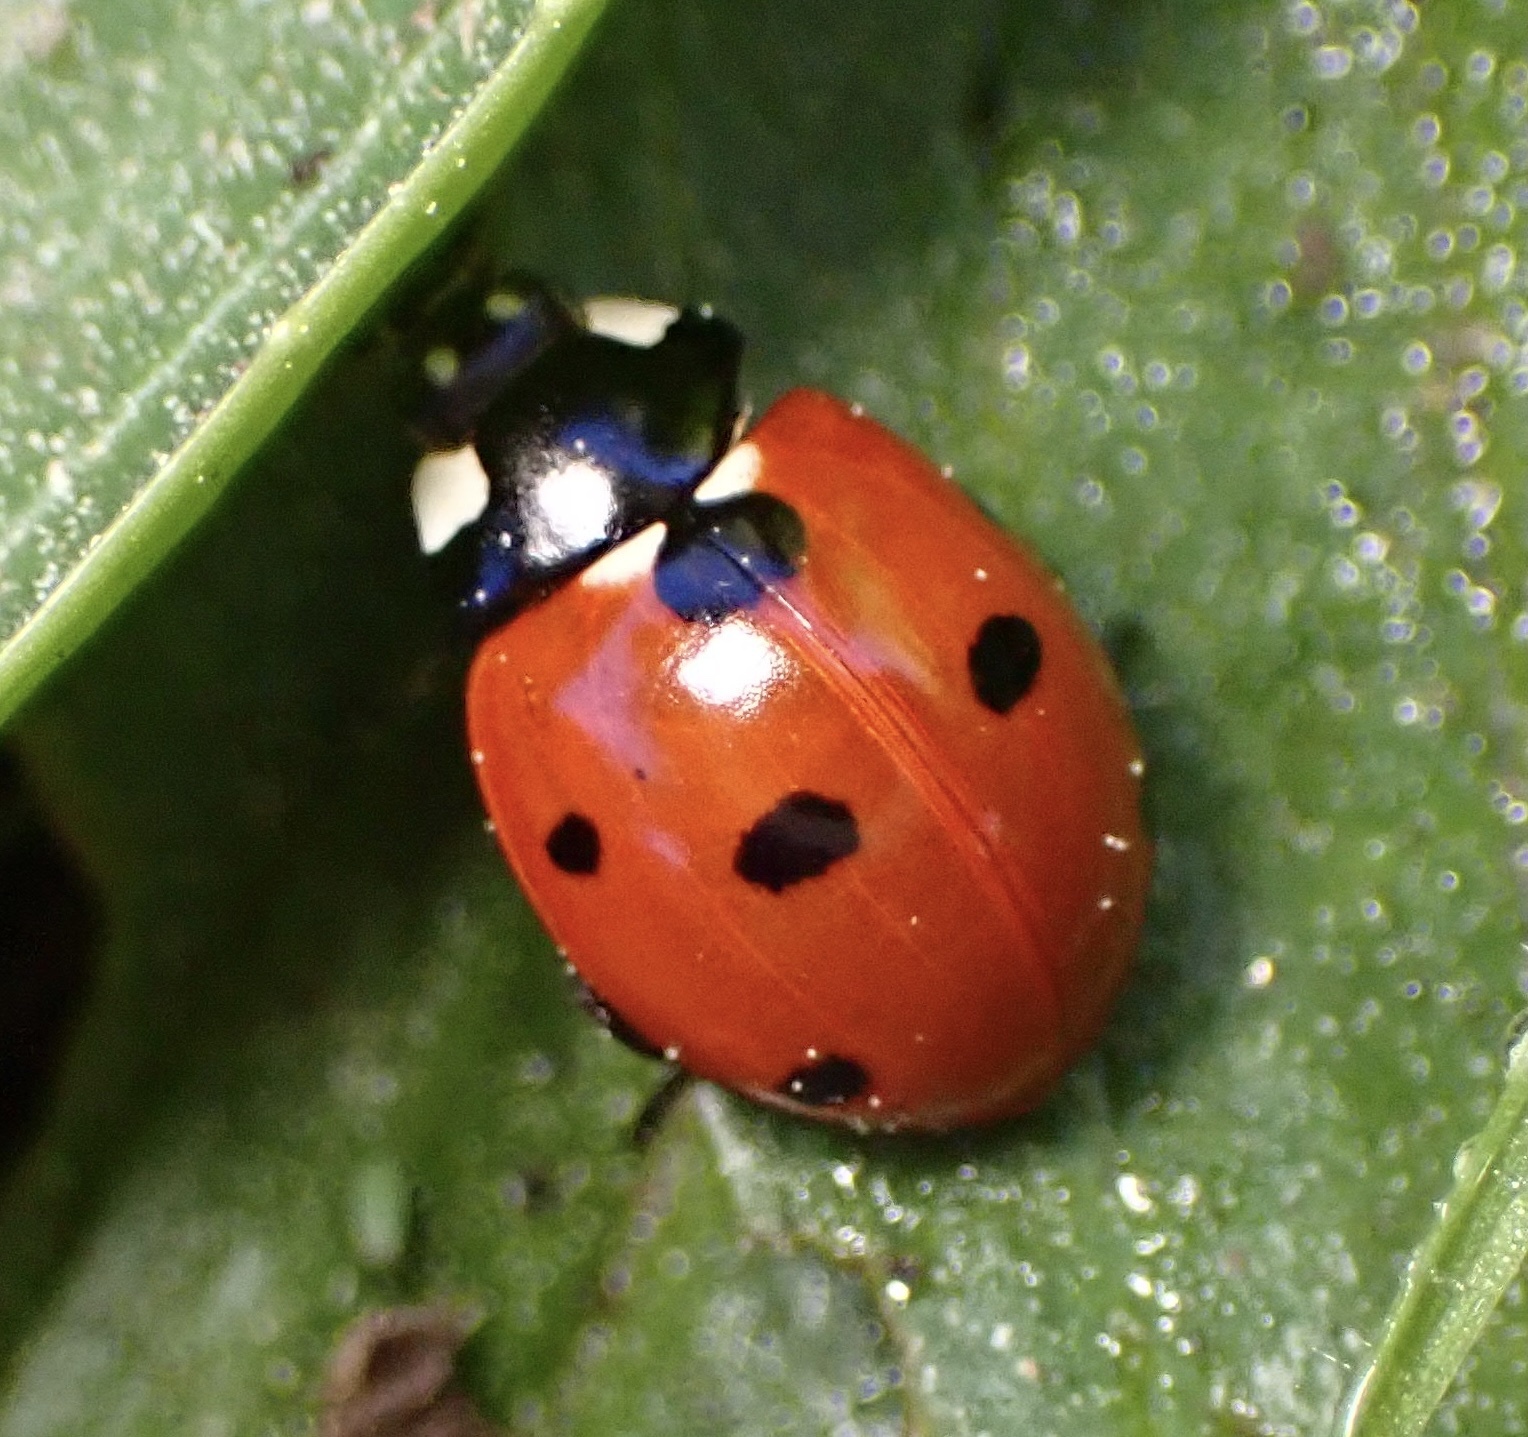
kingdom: Animalia
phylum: Arthropoda
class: Insecta
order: Coleoptera
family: Coccinellidae
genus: Coccinella
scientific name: Coccinella septempunctata
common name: Sevenspotted lady beetle
